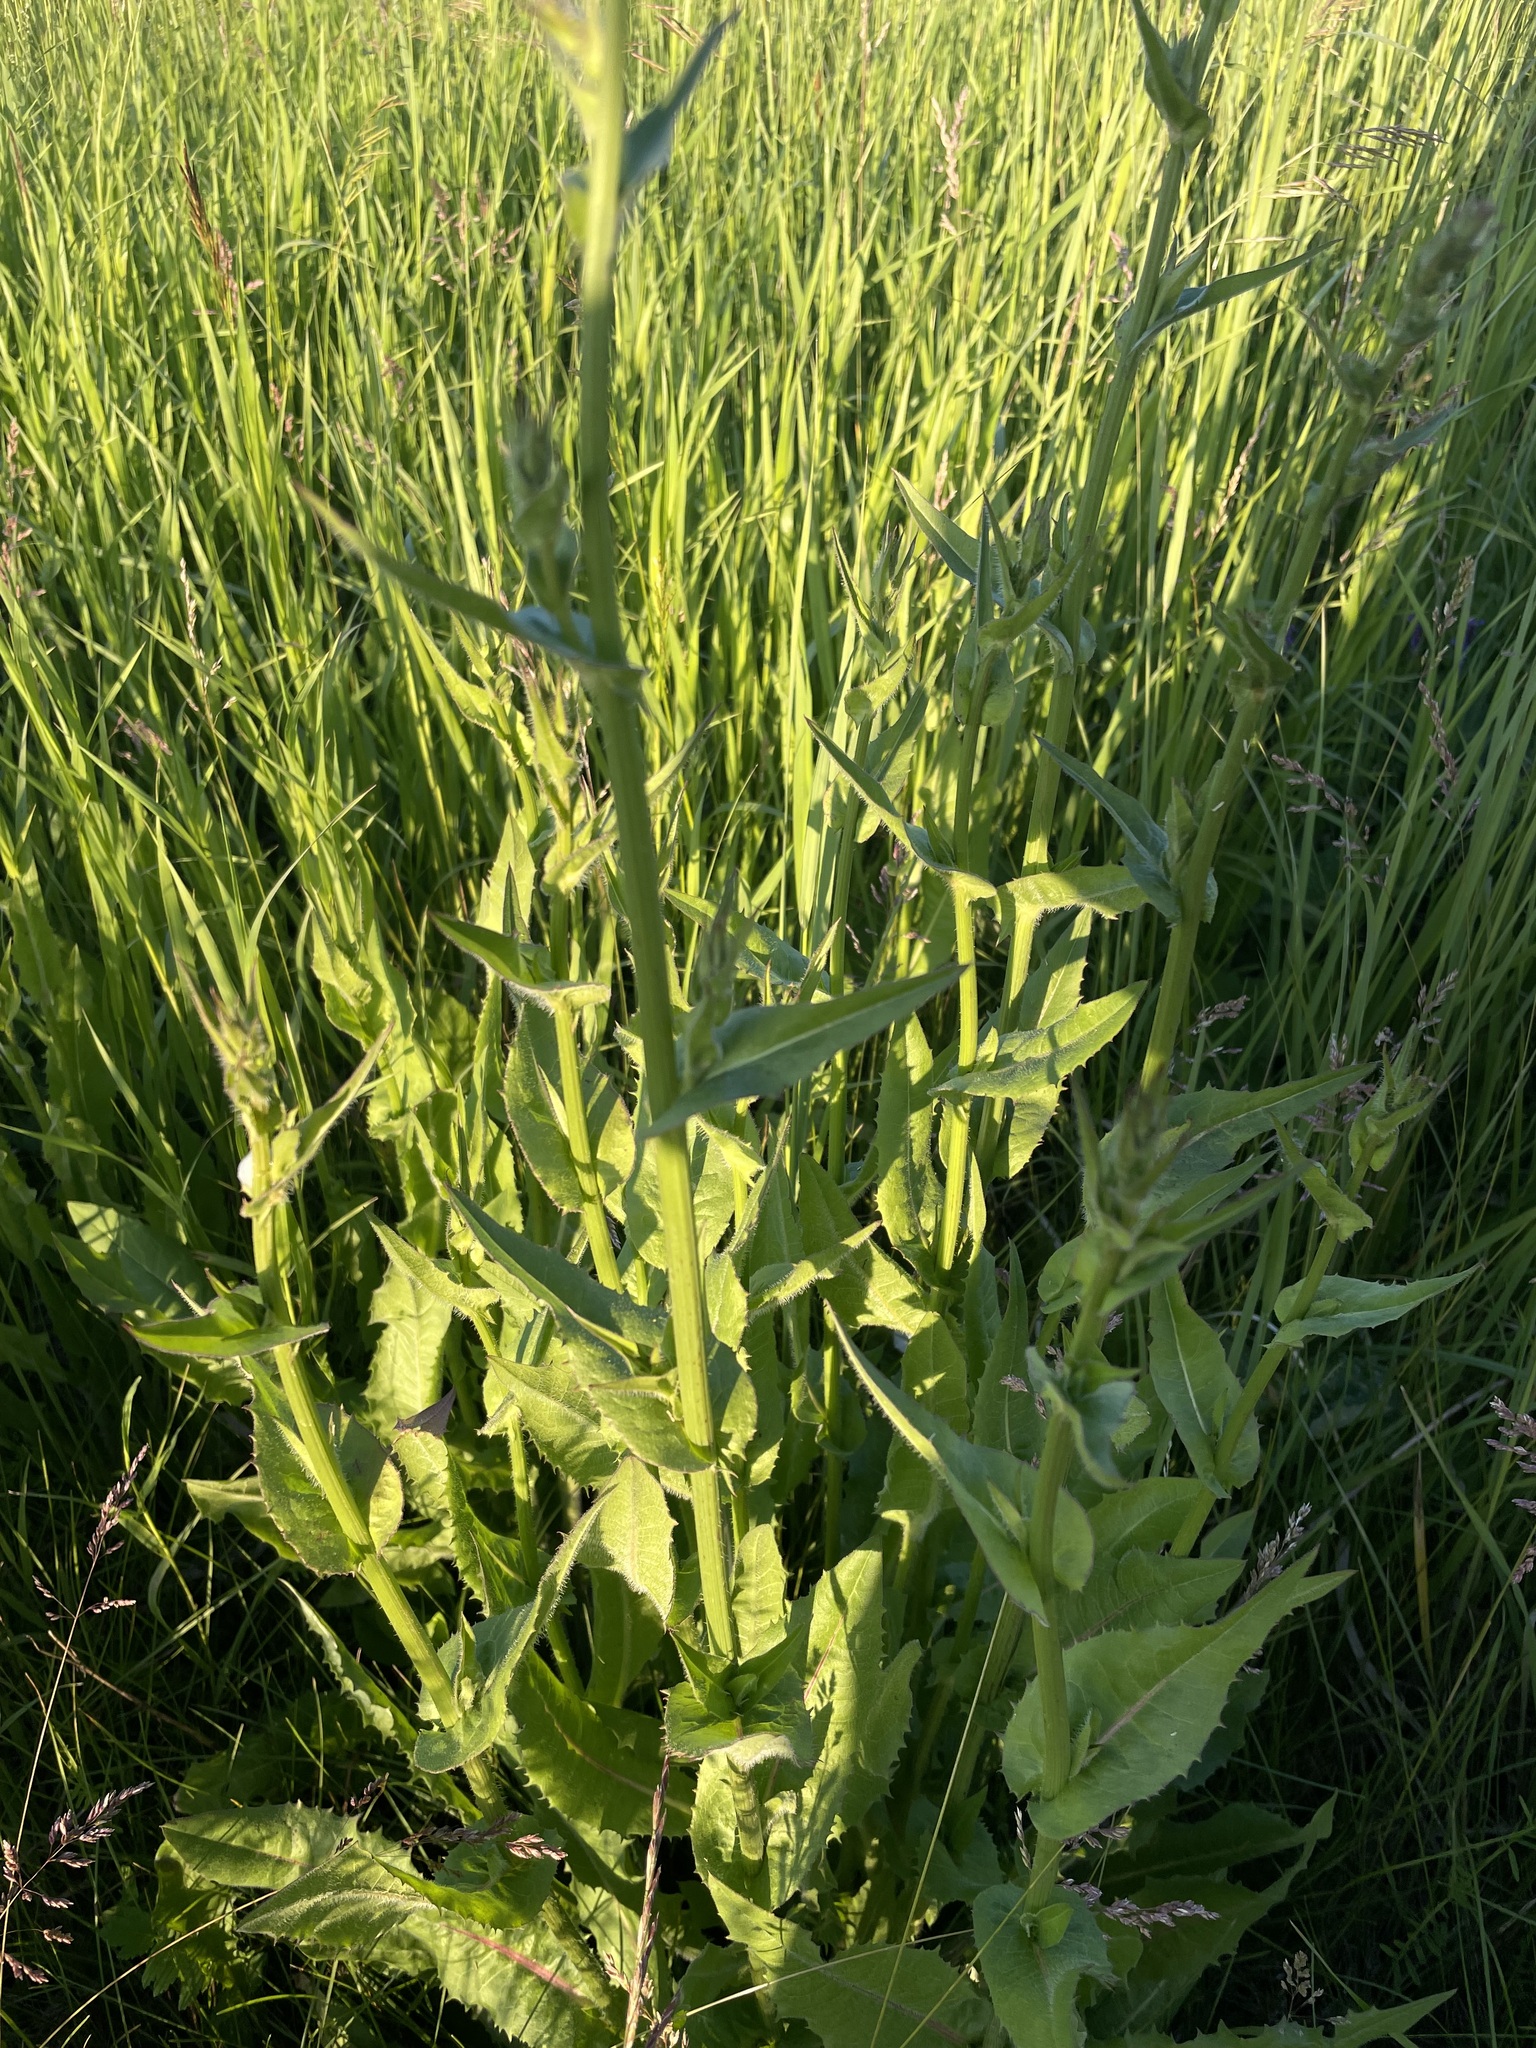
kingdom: Plantae
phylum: Tracheophyta
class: Magnoliopsida
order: Asterales
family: Asteraceae
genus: Cichorium
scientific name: Cichorium intybus
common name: Chicory
